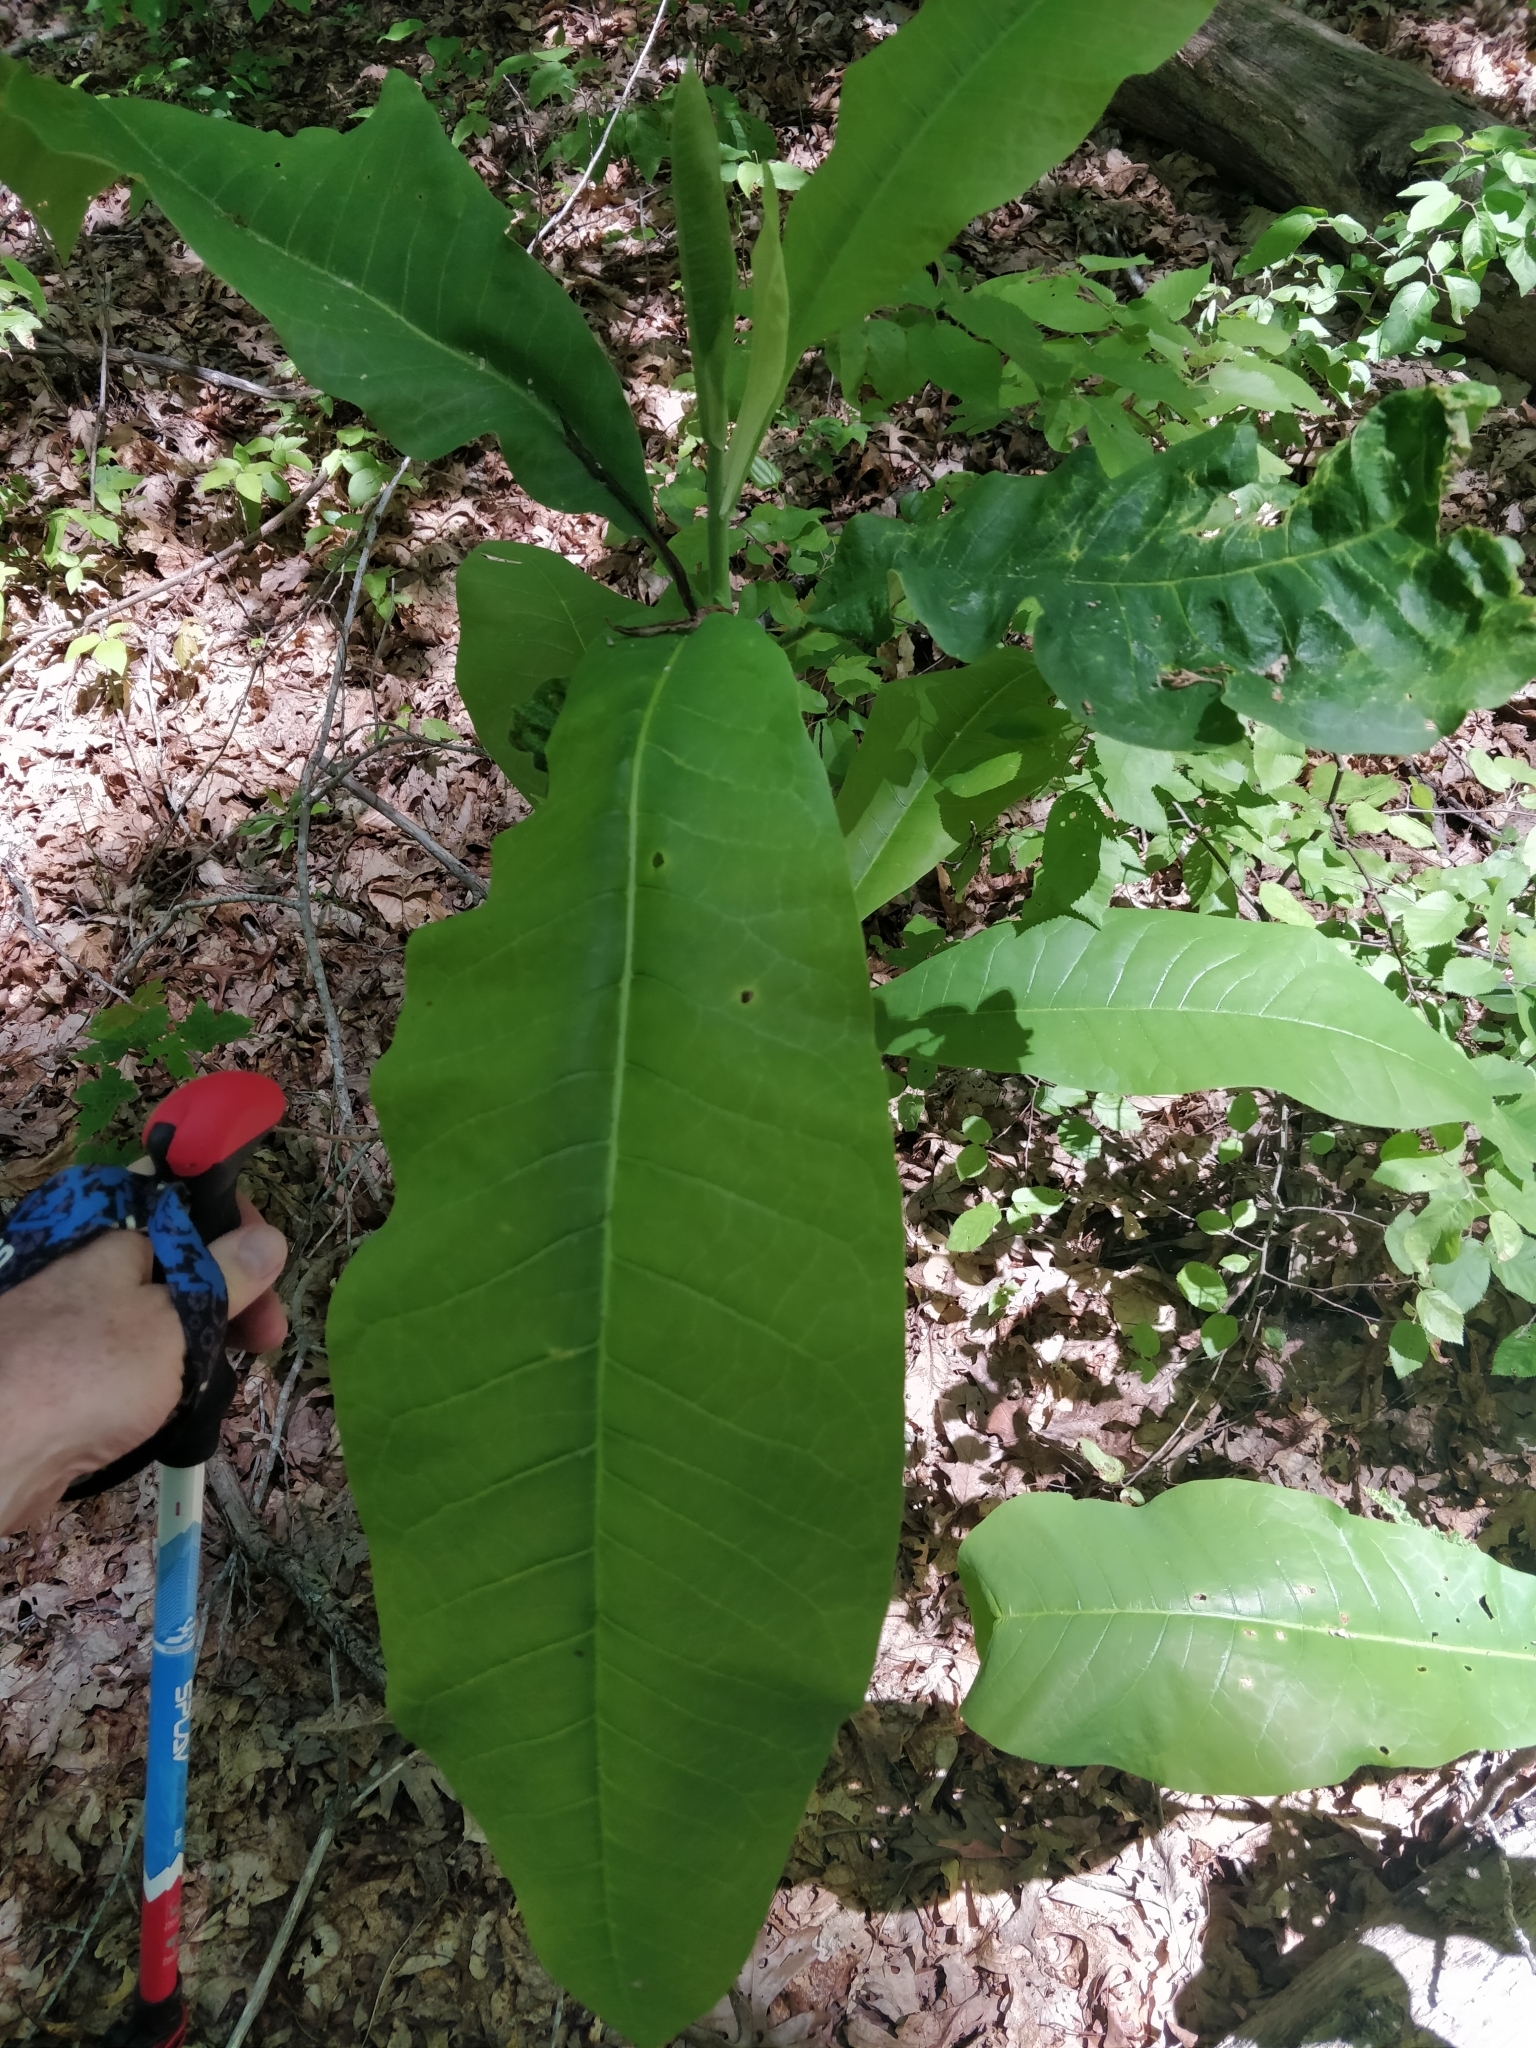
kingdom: Plantae
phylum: Tracheophyta
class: Magnoliopsida
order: Magnoliales
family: Magnoliaceae
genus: Magnolia
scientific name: Magnolia tripetala
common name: Umbrella magnolia
